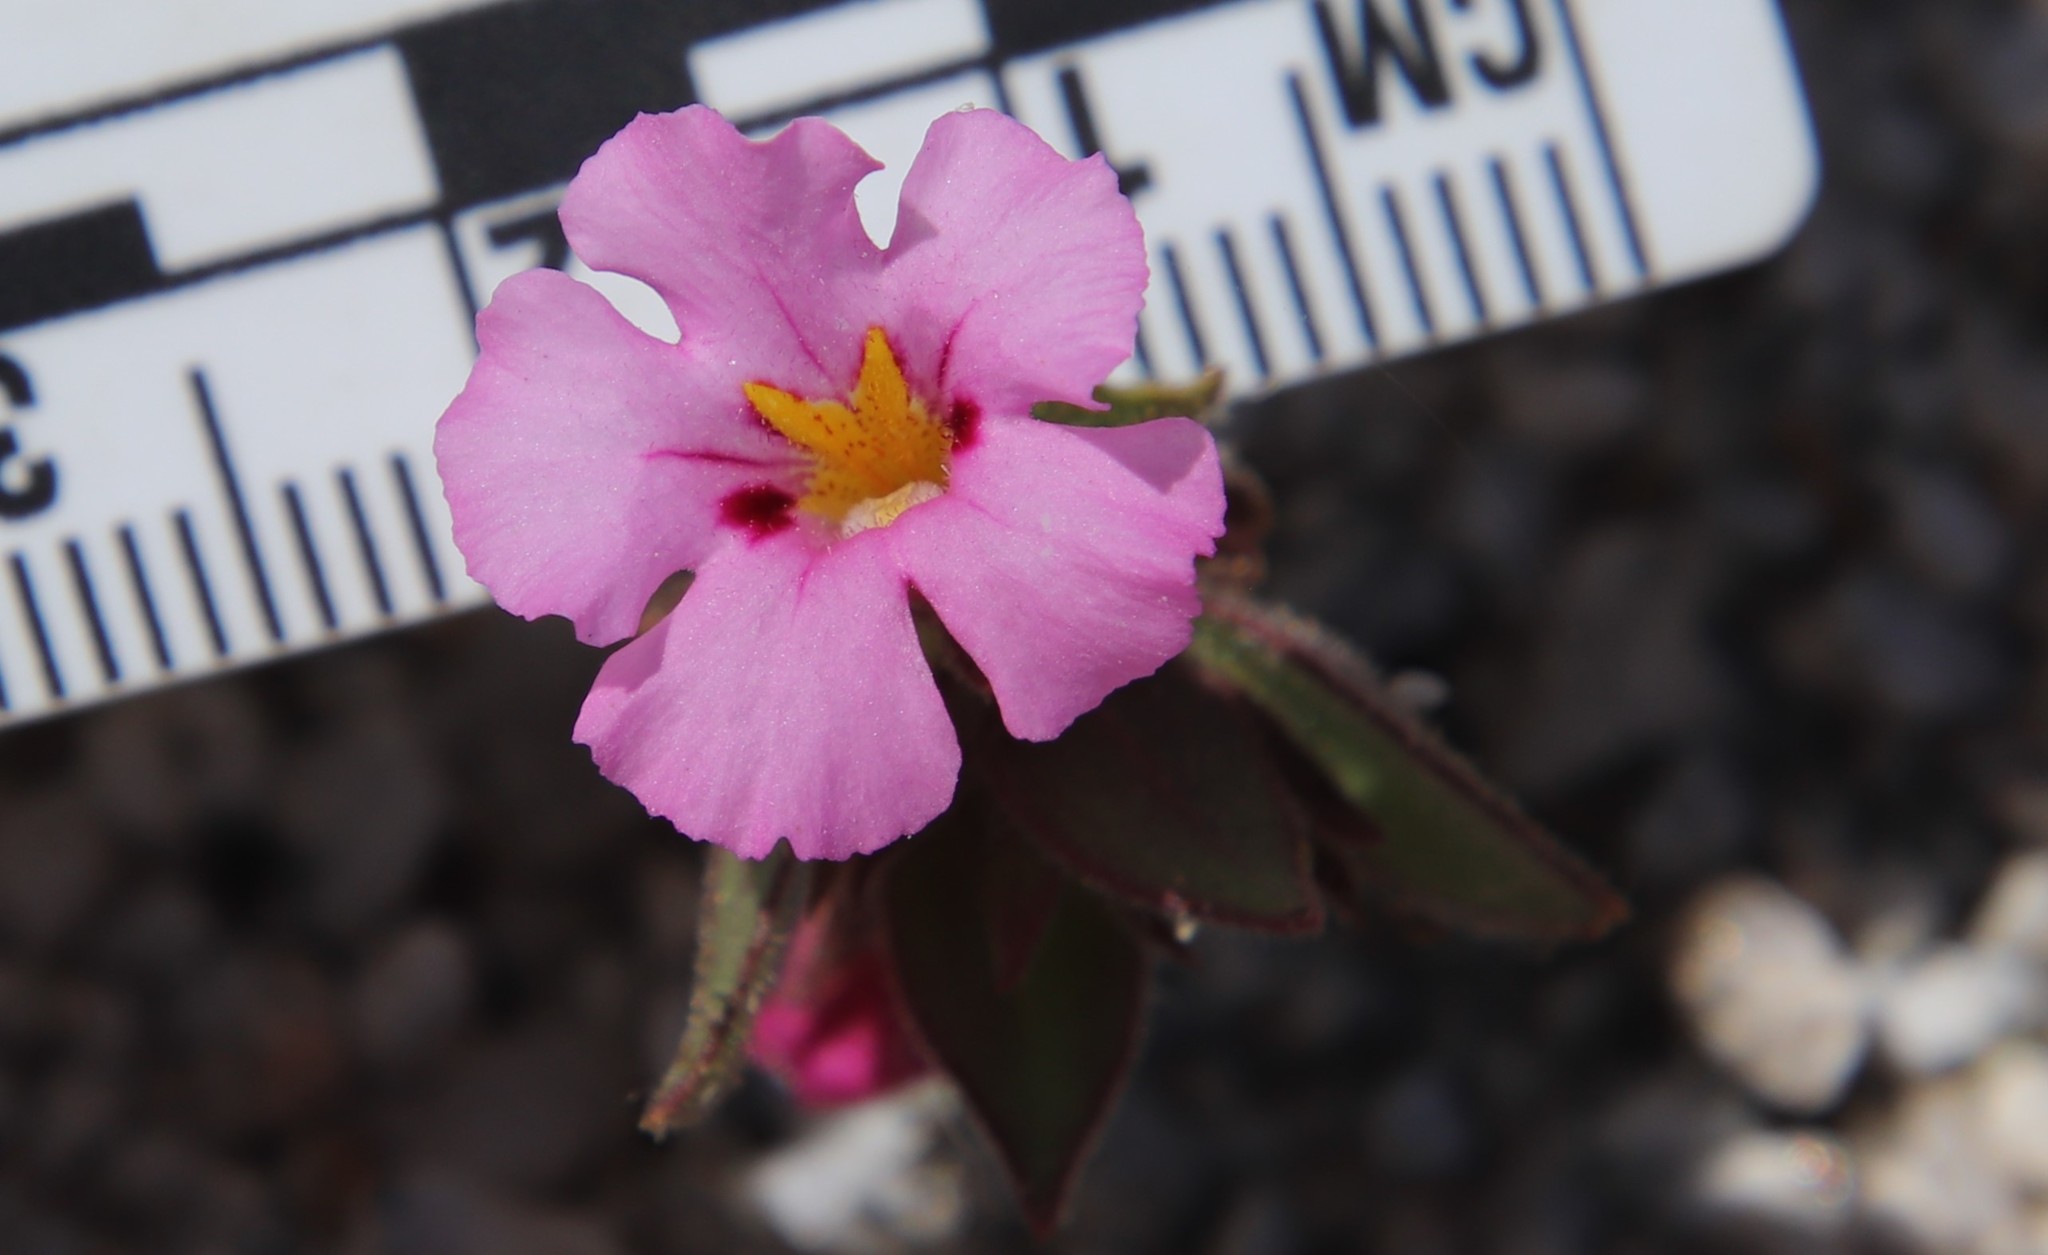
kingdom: Plantae
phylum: Tracheophyta
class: Magnoliopsida
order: Lamiales
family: Phrymaceae
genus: Diplacus
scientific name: Diplacus bigelovii
